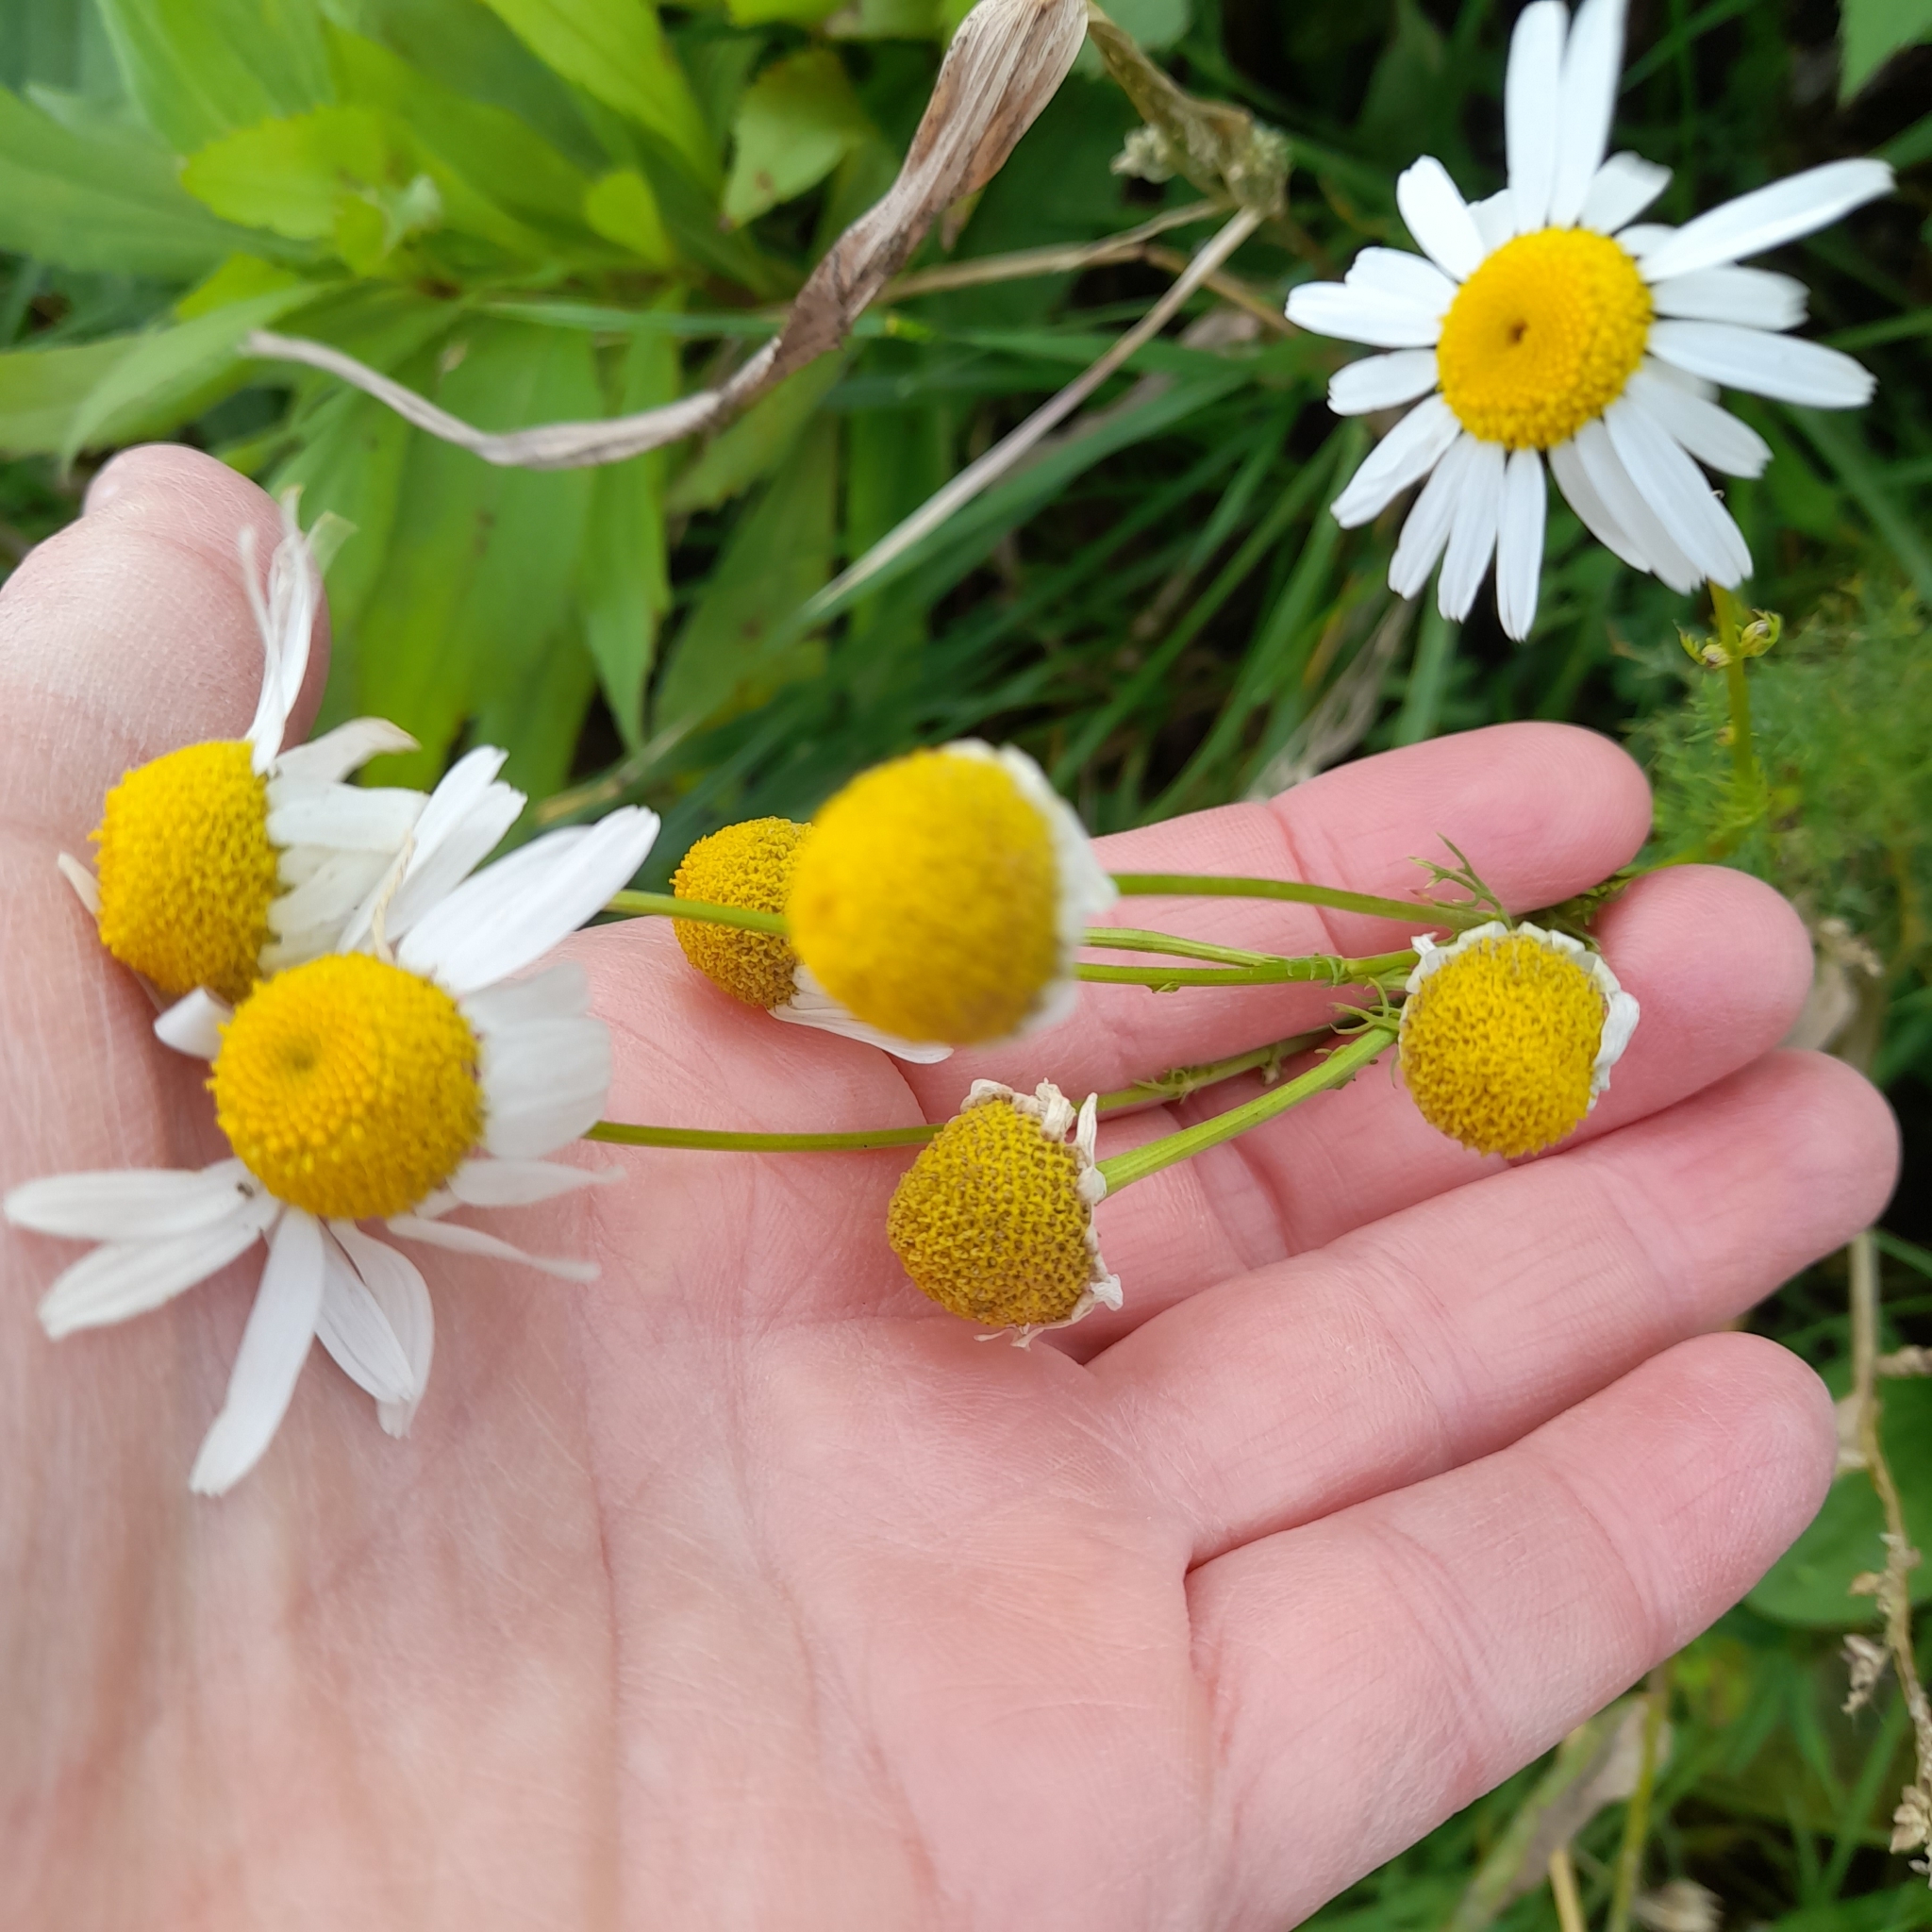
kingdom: Plantae
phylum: Tracheophyta
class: Magnoliopsida
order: Asterales
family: Asteraceae
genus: Tripleurospermum
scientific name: Tripleurospermum inodorum
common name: Scentless mayweed
